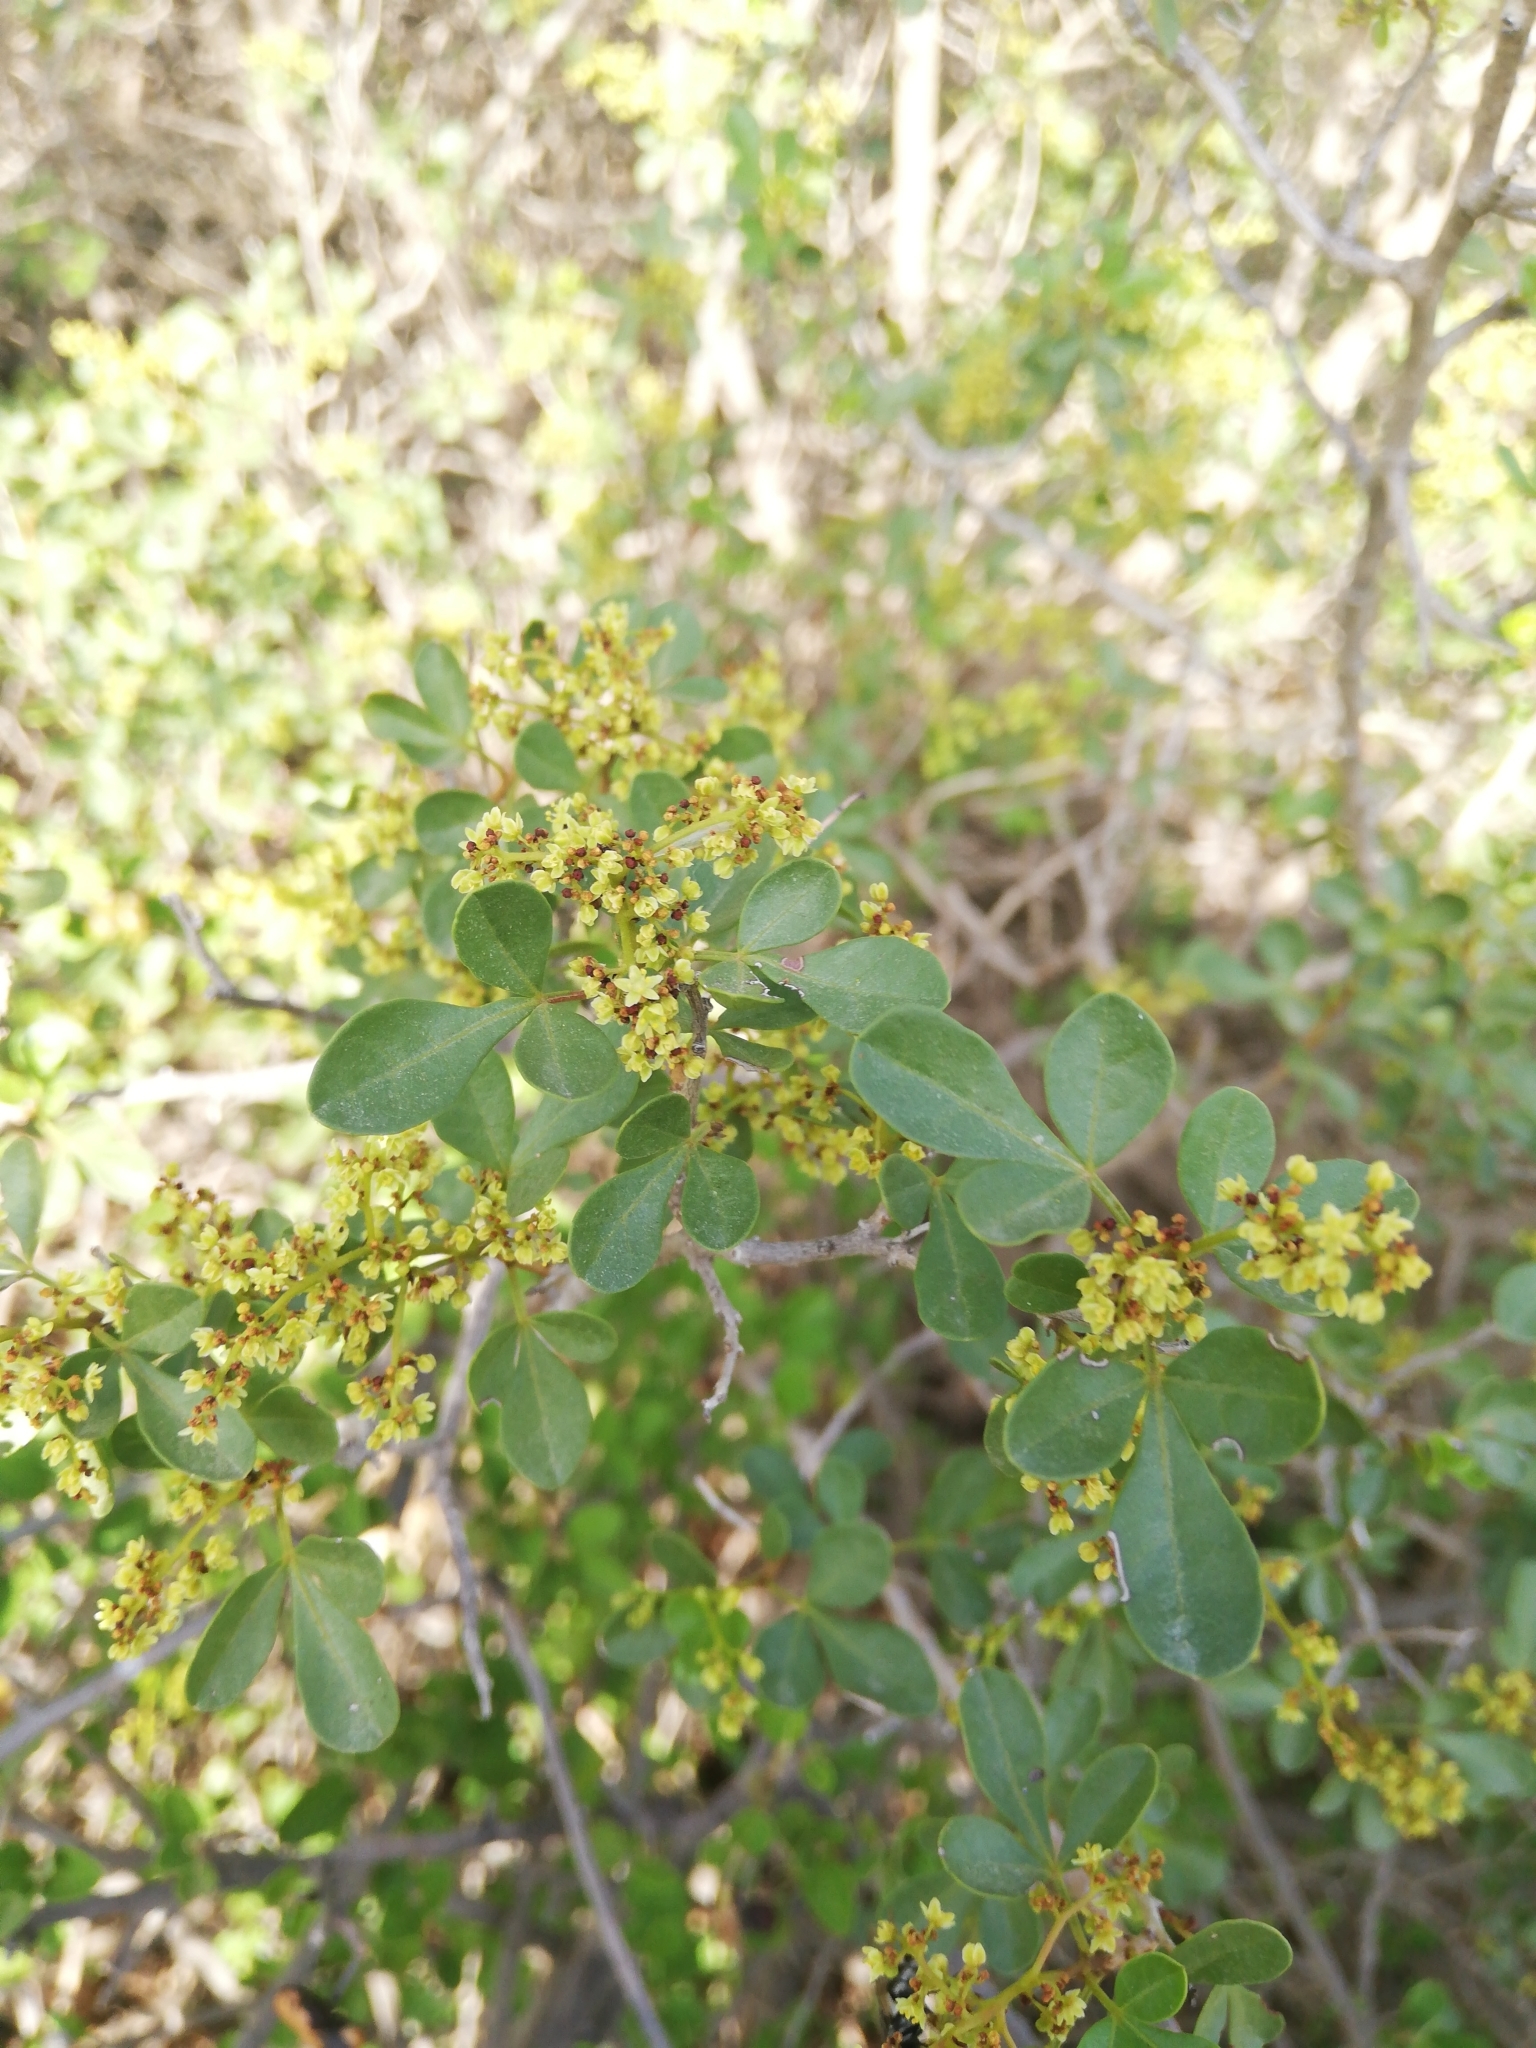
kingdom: Plantae
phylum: Tracheophyta
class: Magnoliopsida
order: Sapindales
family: Anacardiaceae
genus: Searsia
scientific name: Searsia refracta
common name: Thorny crow-berry
